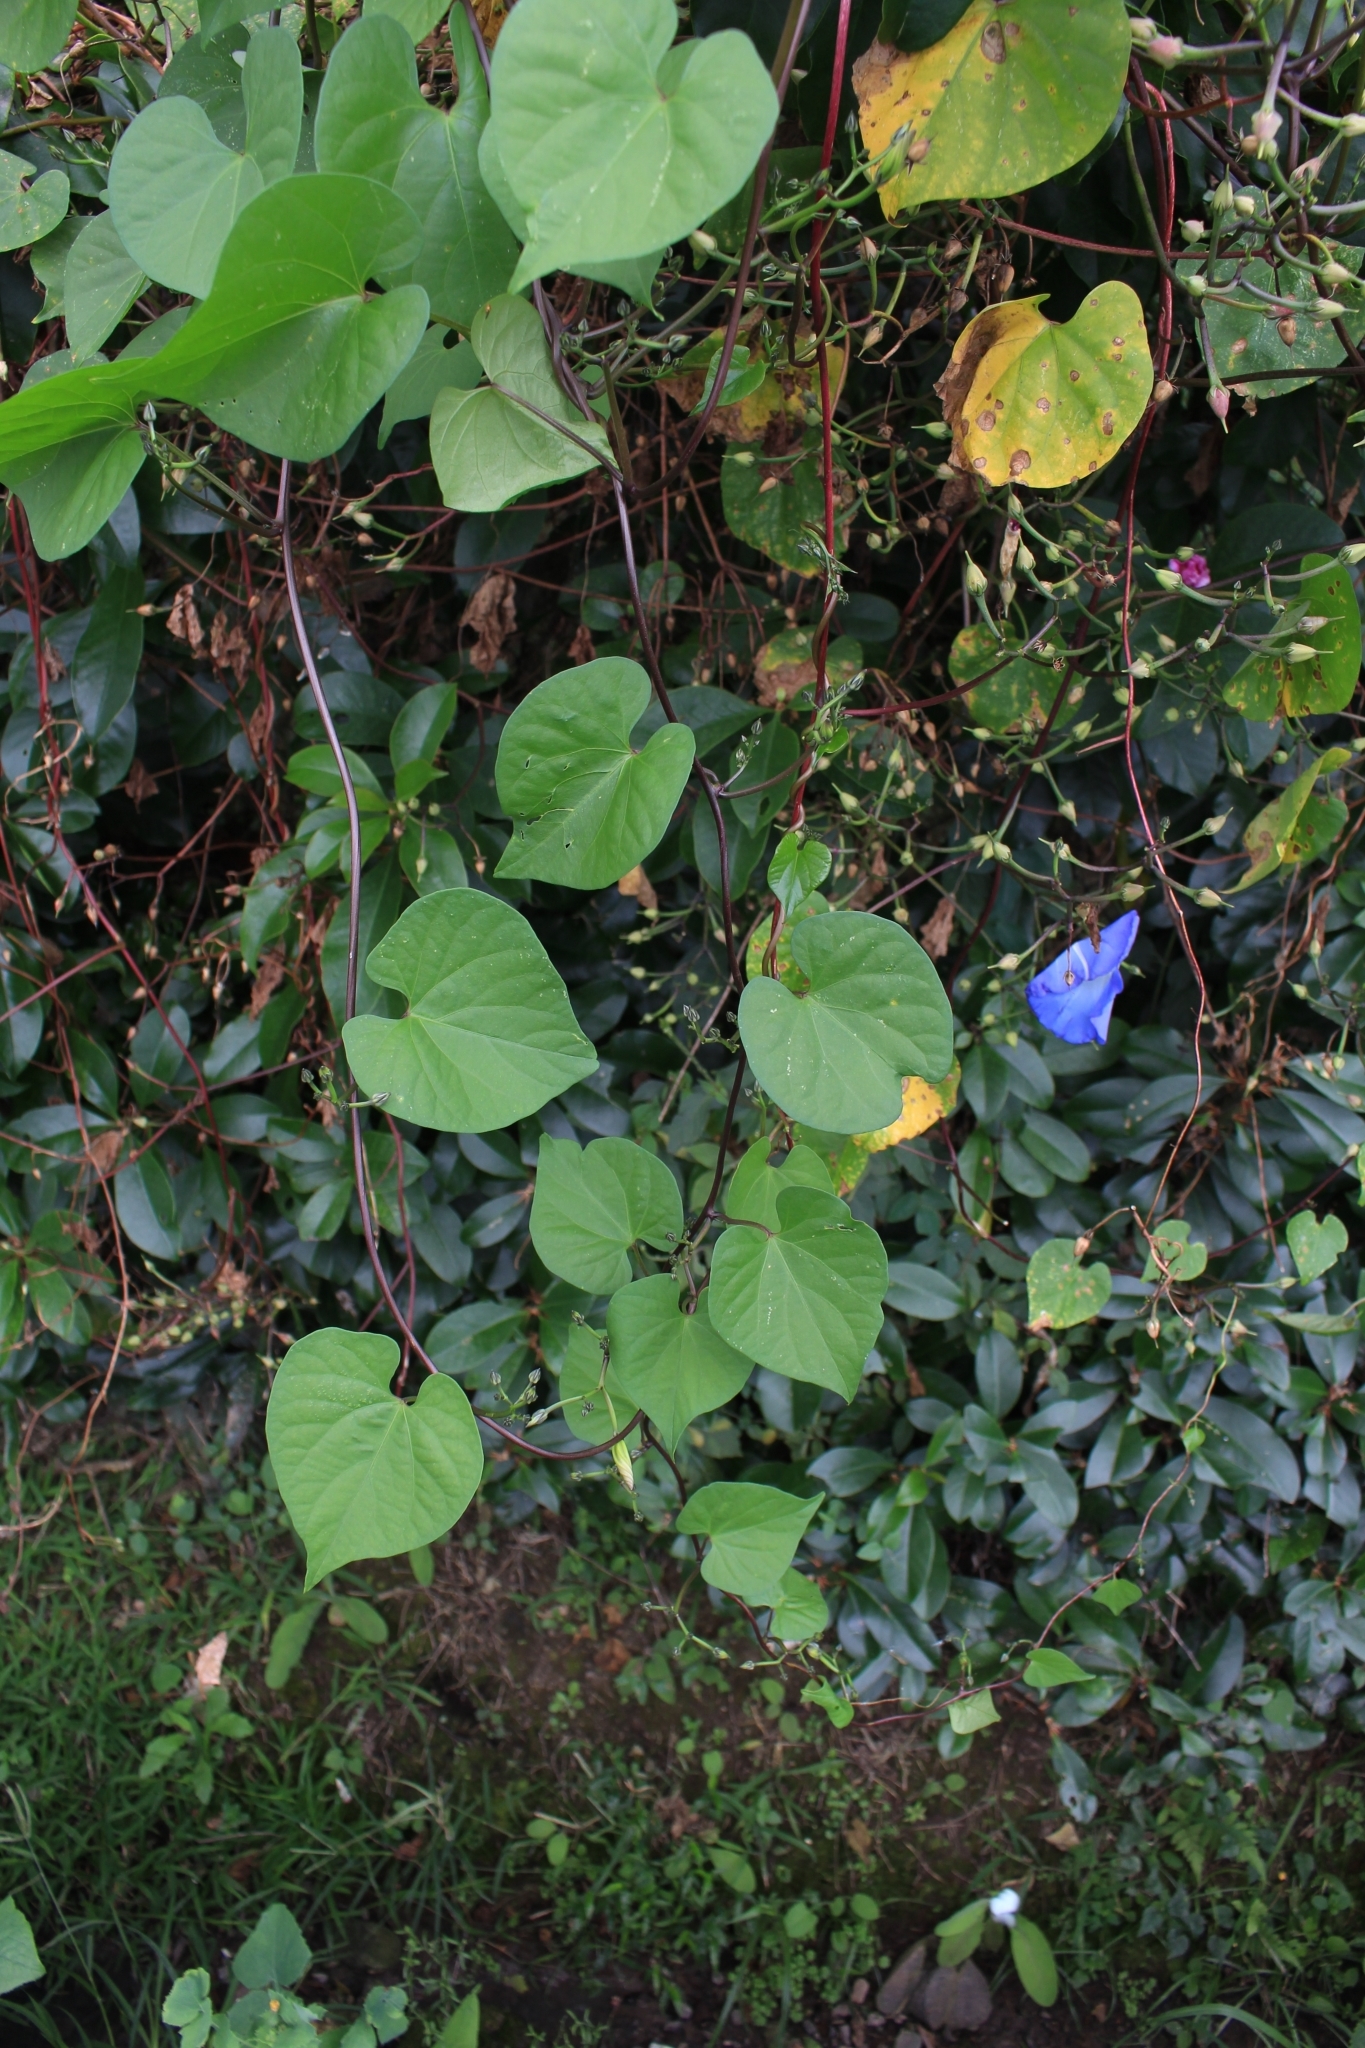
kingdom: Plantae
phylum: Tracheophyta
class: Magnoliopsida
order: Solanales
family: Convolvulaceae
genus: Ipomoea
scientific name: Ipomoea tricolor
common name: Morning-glory
